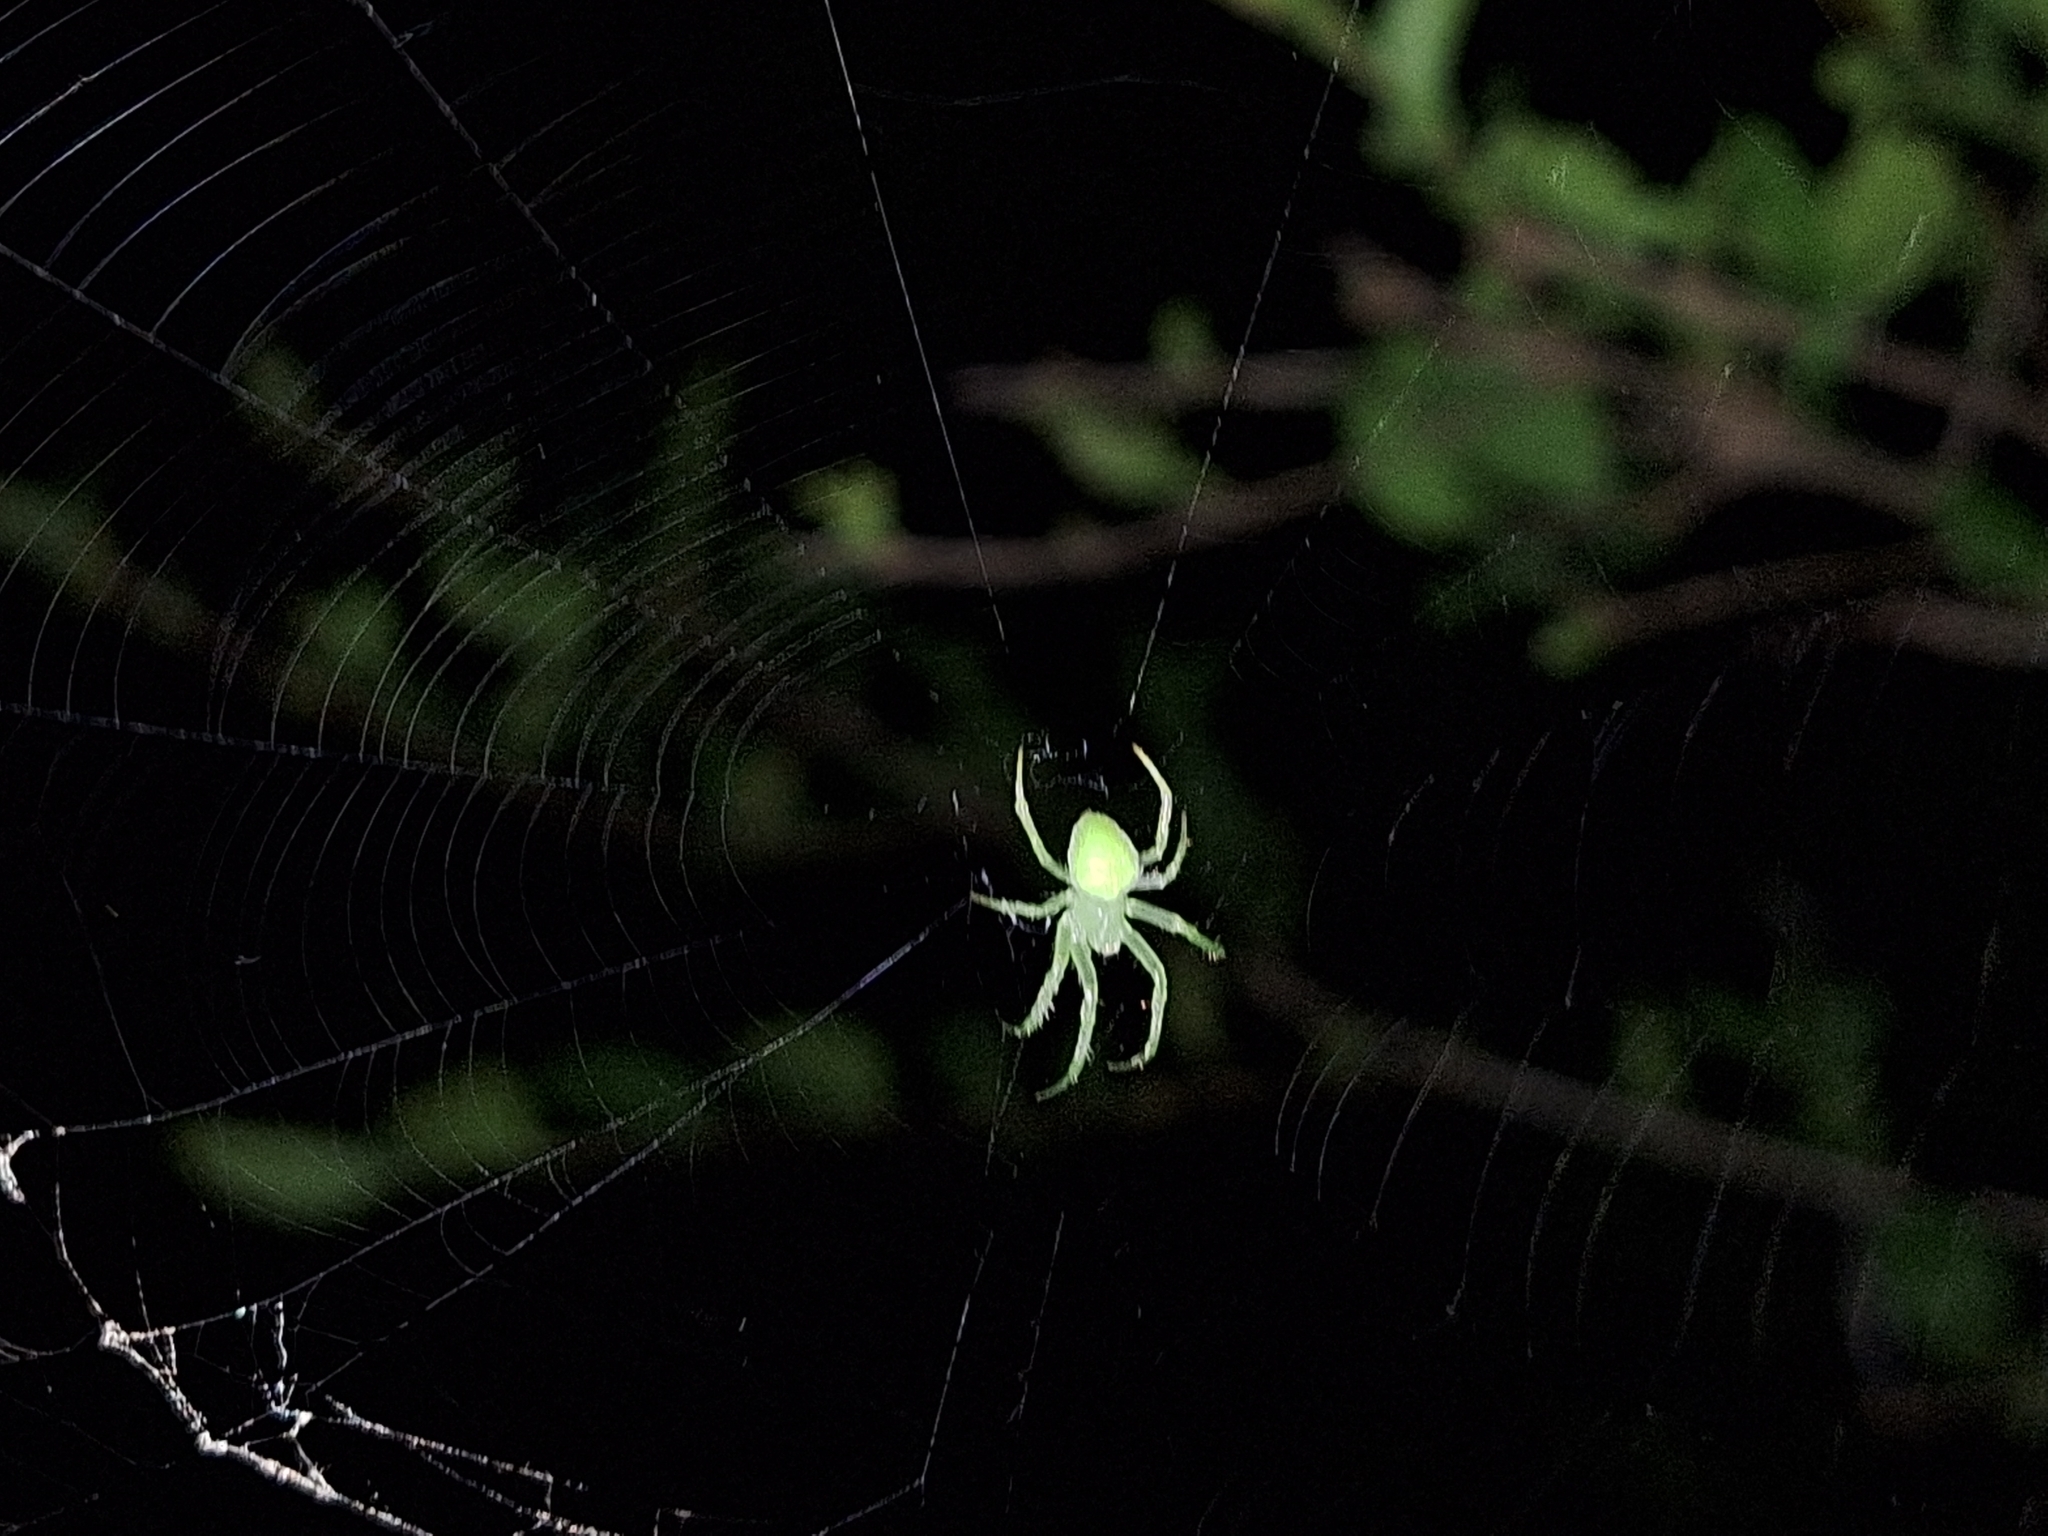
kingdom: Animalia
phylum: Arthropoda
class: Arachnida
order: Araneae
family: Araneidae
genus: Araneus
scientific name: Araneus uniformis
